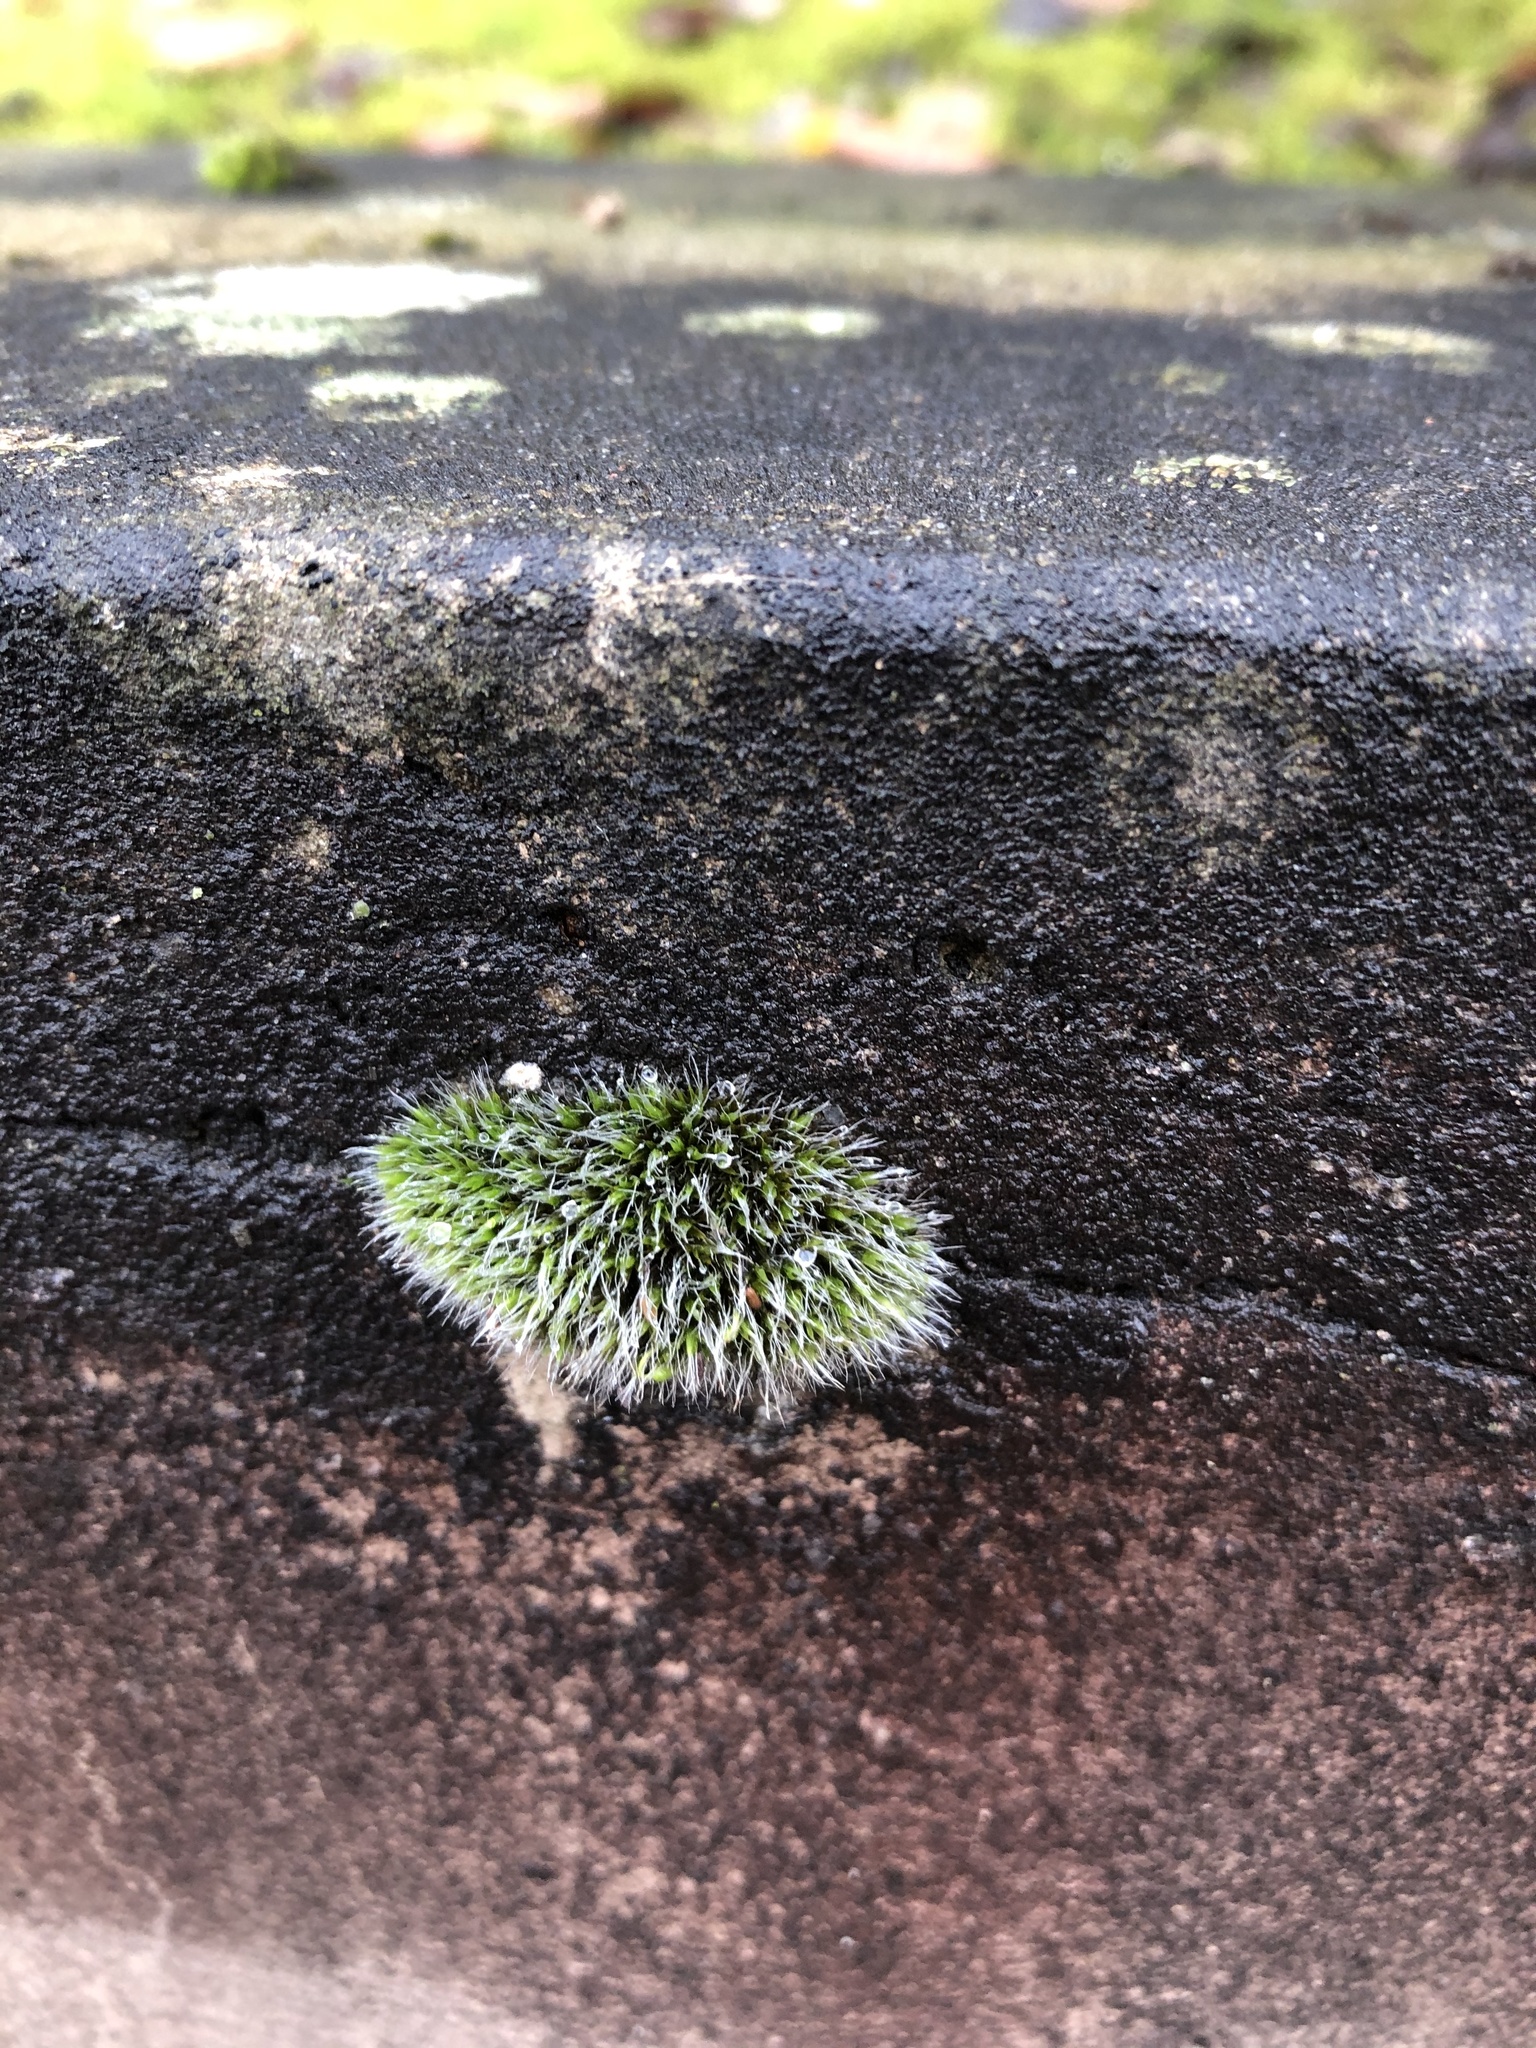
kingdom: Plantae
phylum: Bryophyta
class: Bryopsida
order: Grimmiales
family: Grimmiaceae
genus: Grimmia
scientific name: Grimmia pulvinata
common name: Grey-cushioned grimmia
